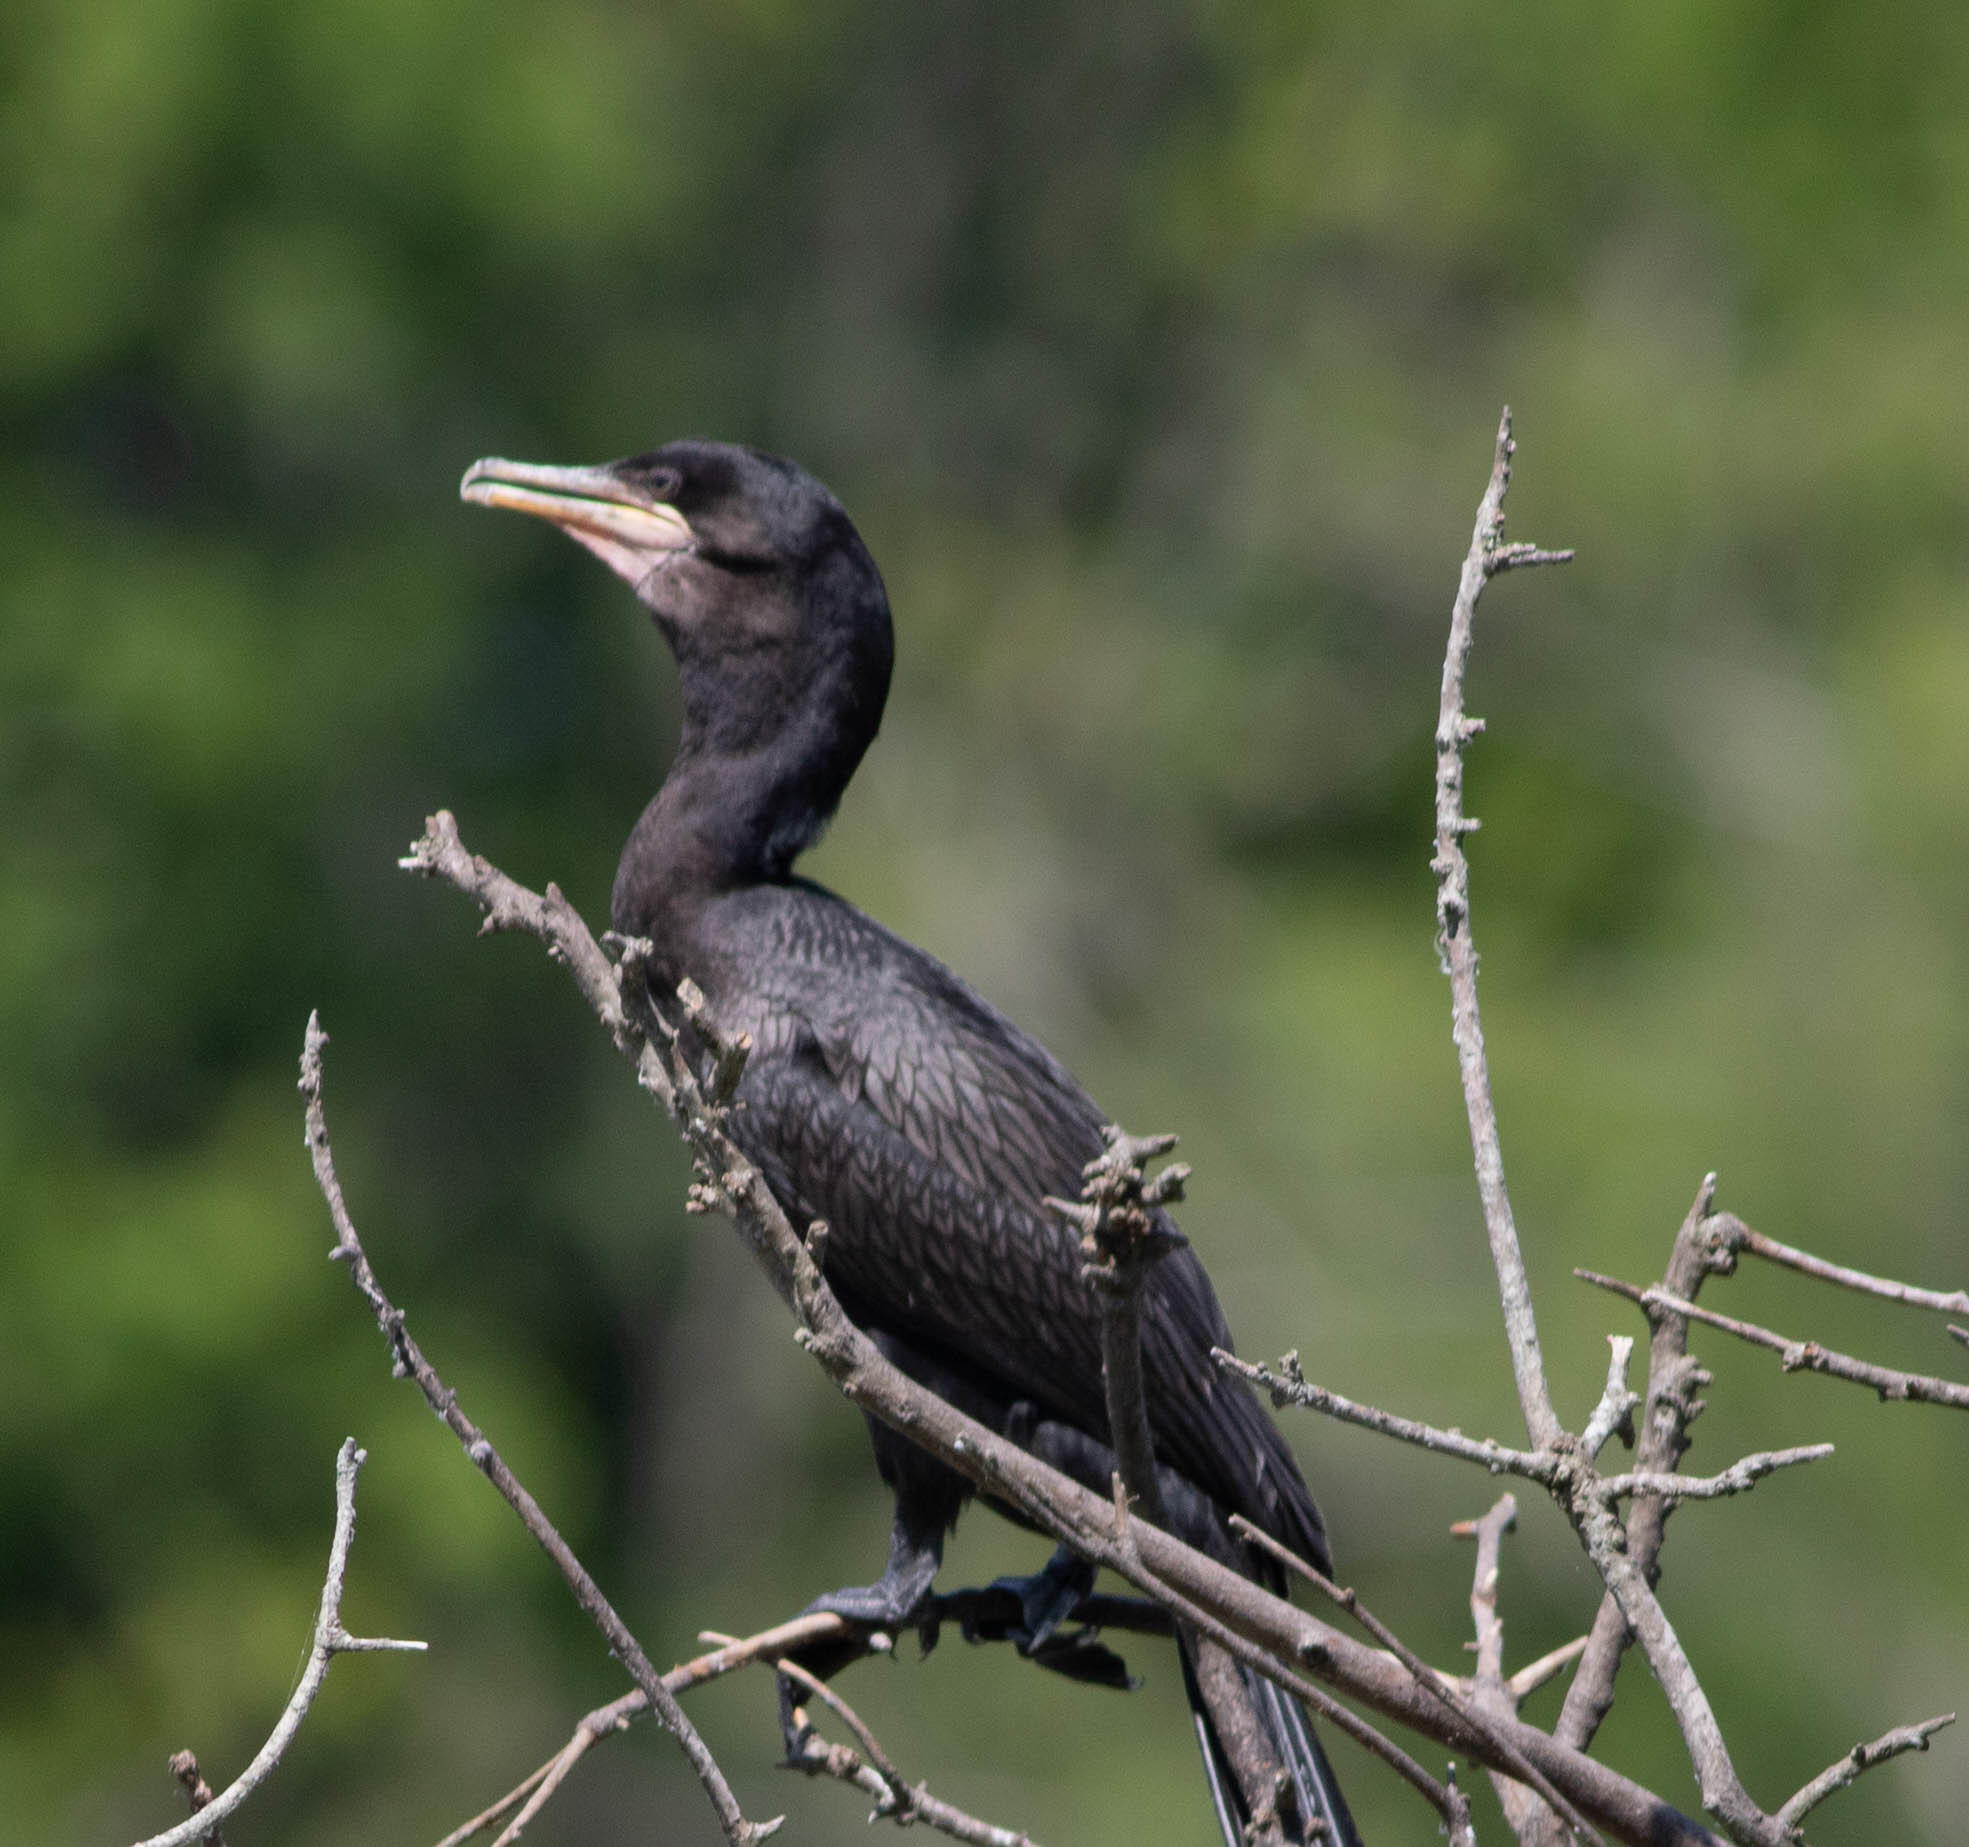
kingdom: Animalia
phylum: Chordata
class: Aves
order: Suliformes
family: Phalacrocoracidae
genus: Phalacrocorax
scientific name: Phalacrocorax brasilianus
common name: Neotropic cormorant
